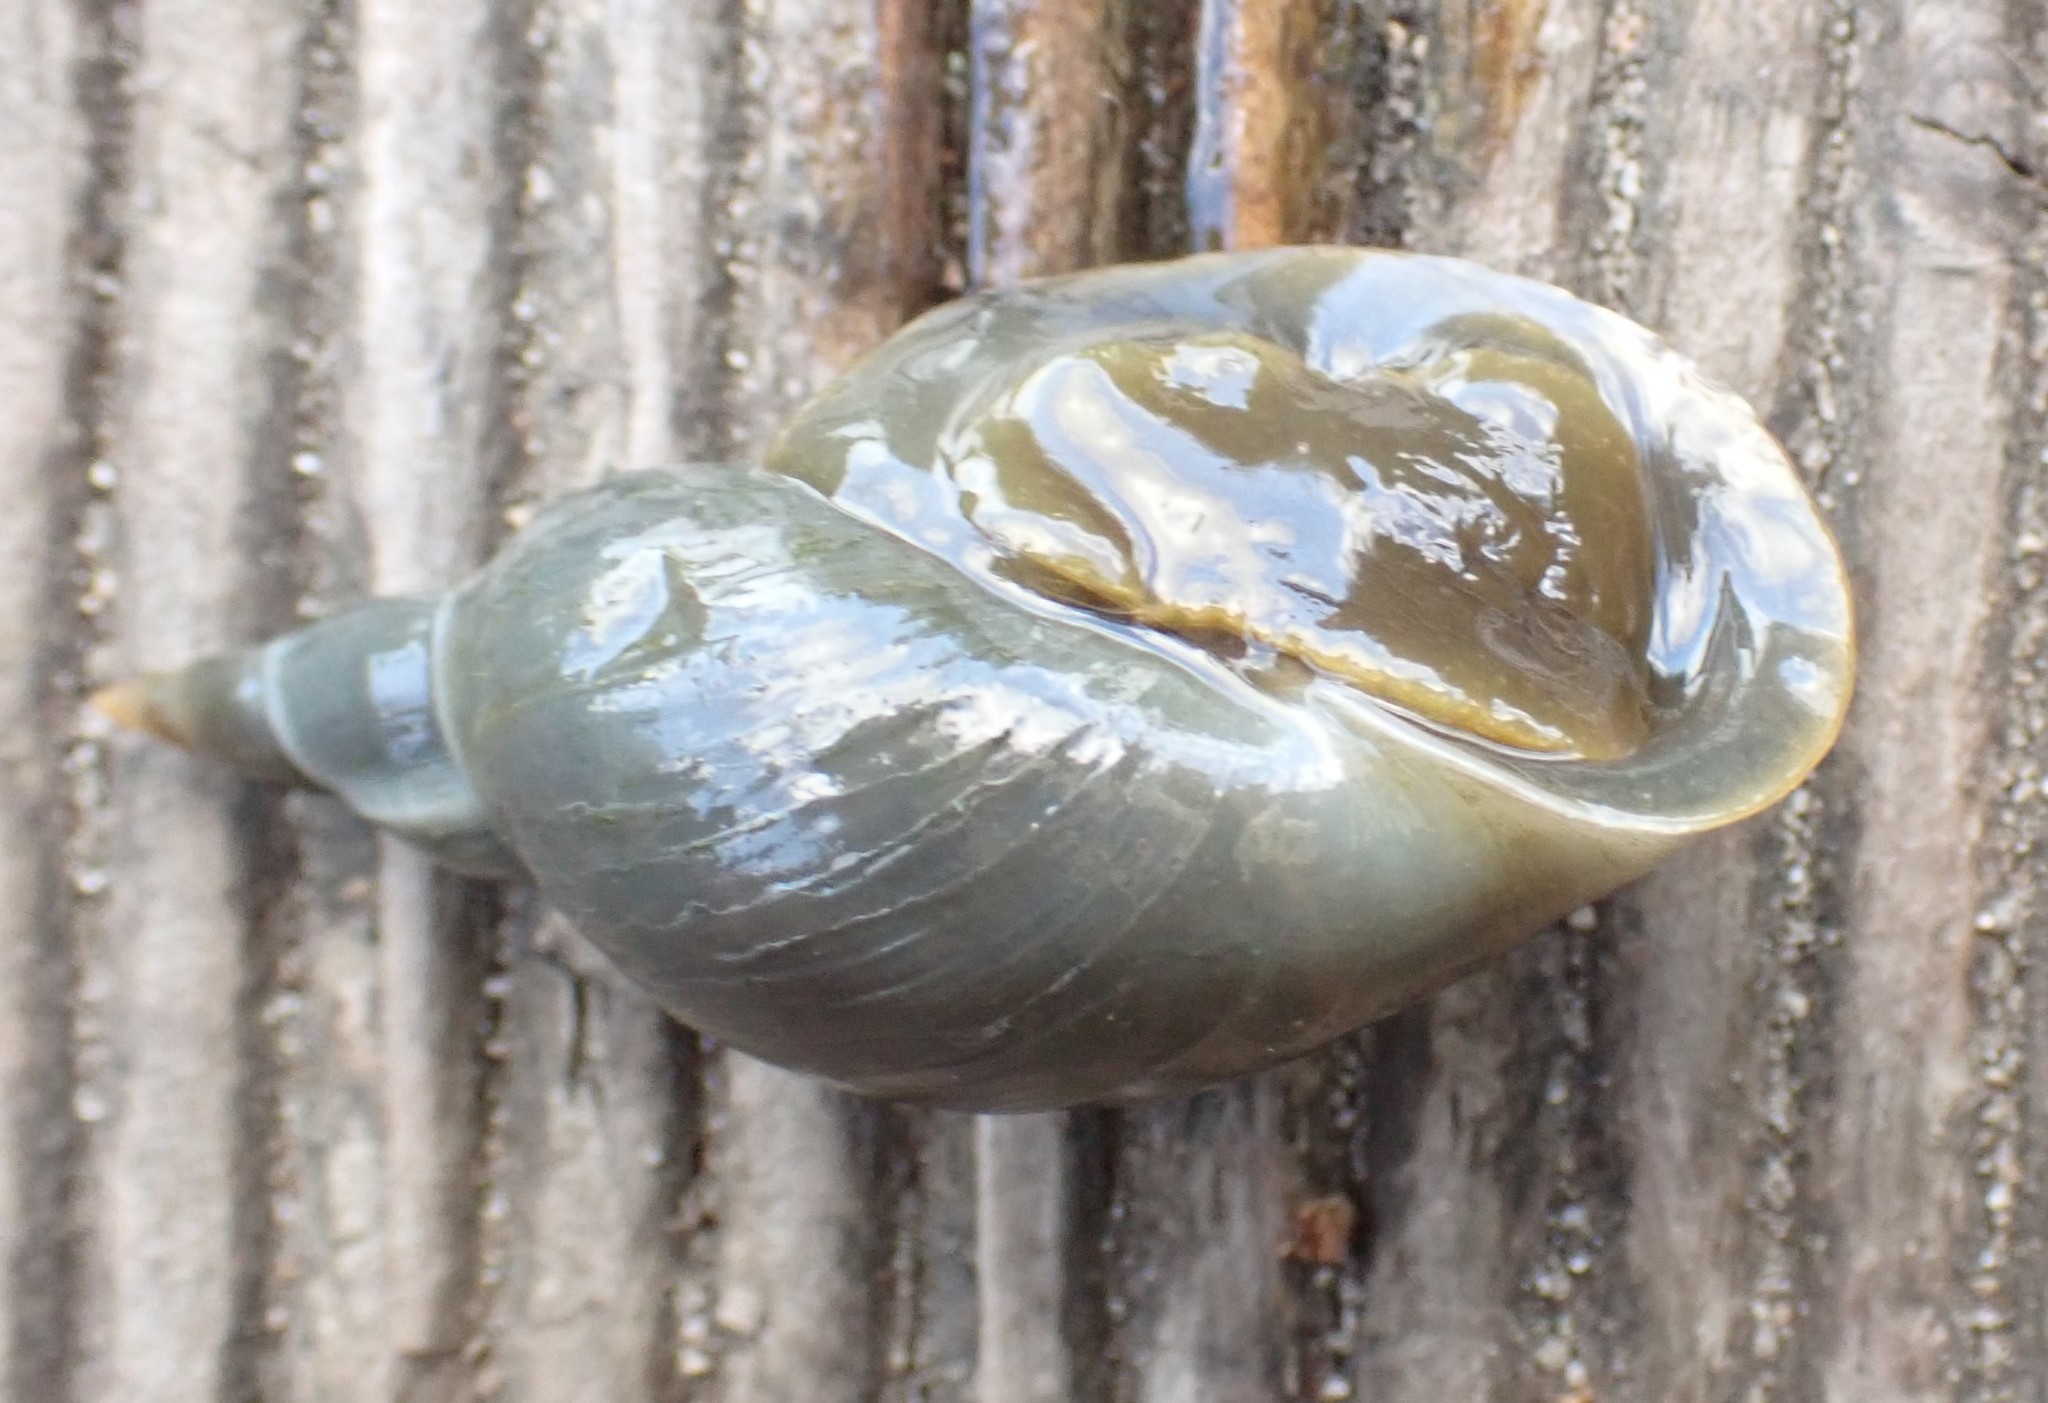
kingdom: Animalia
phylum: Mollusca
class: Gastropoda
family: Lymnaeidae
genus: Lymnaea
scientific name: Lymnaea stagnalis
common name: Great pond snail
